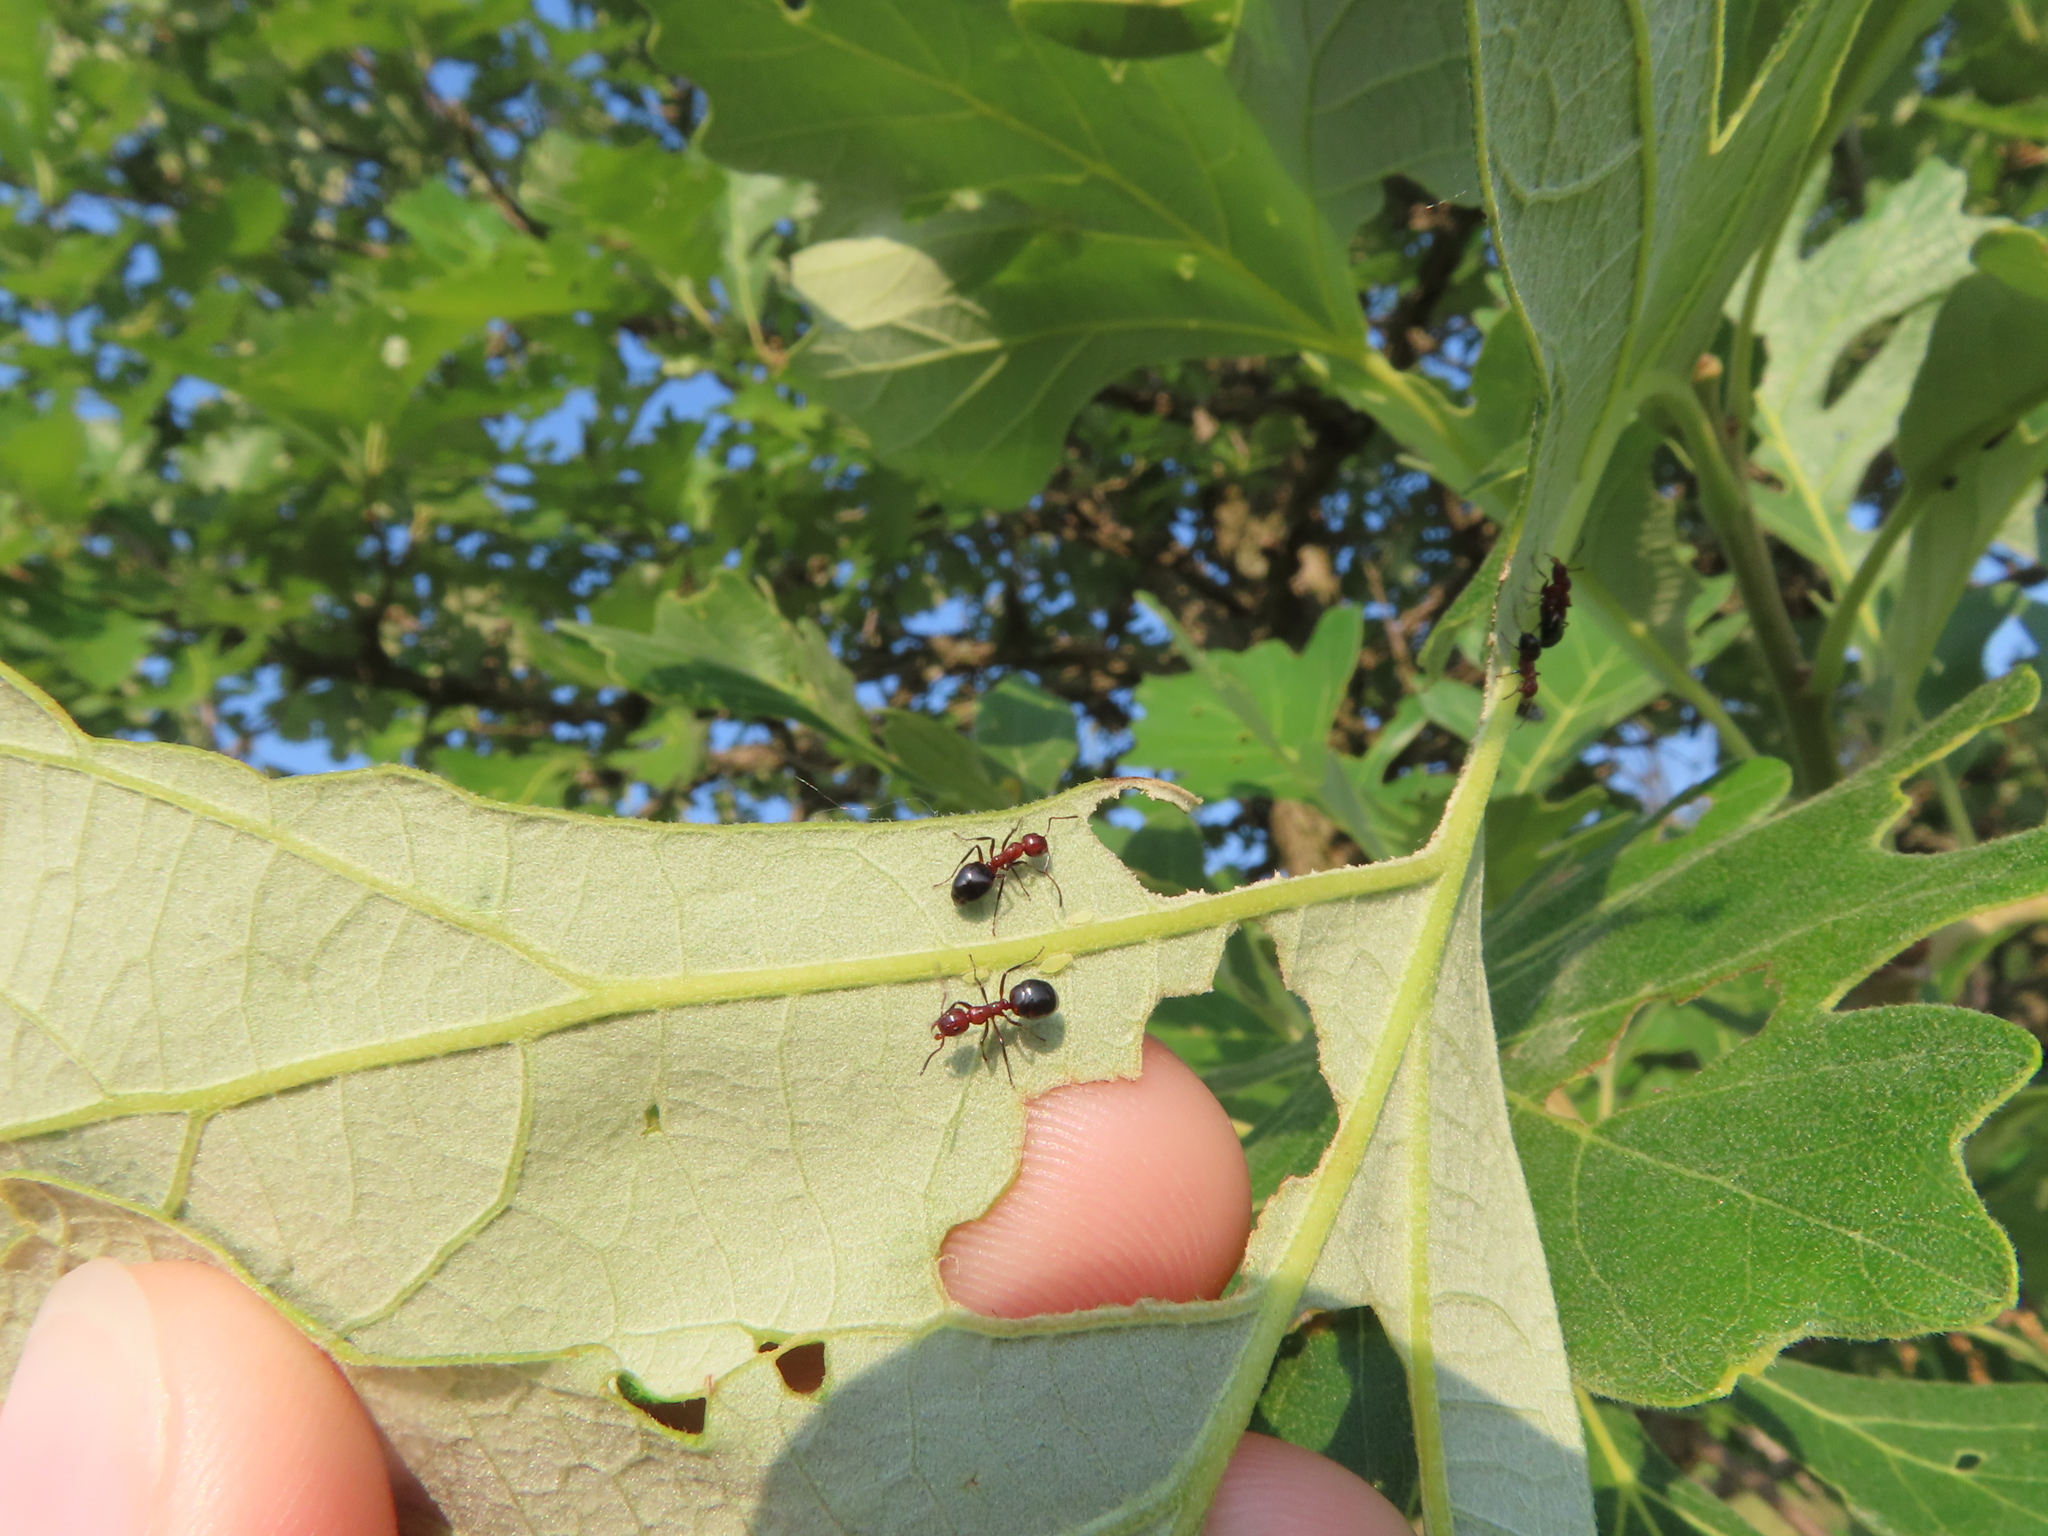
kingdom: Animalia
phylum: Arthropoda
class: Insecta
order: Hymenoptera
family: Formicidae
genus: Dolichoderus
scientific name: Dolichoderus mariae
